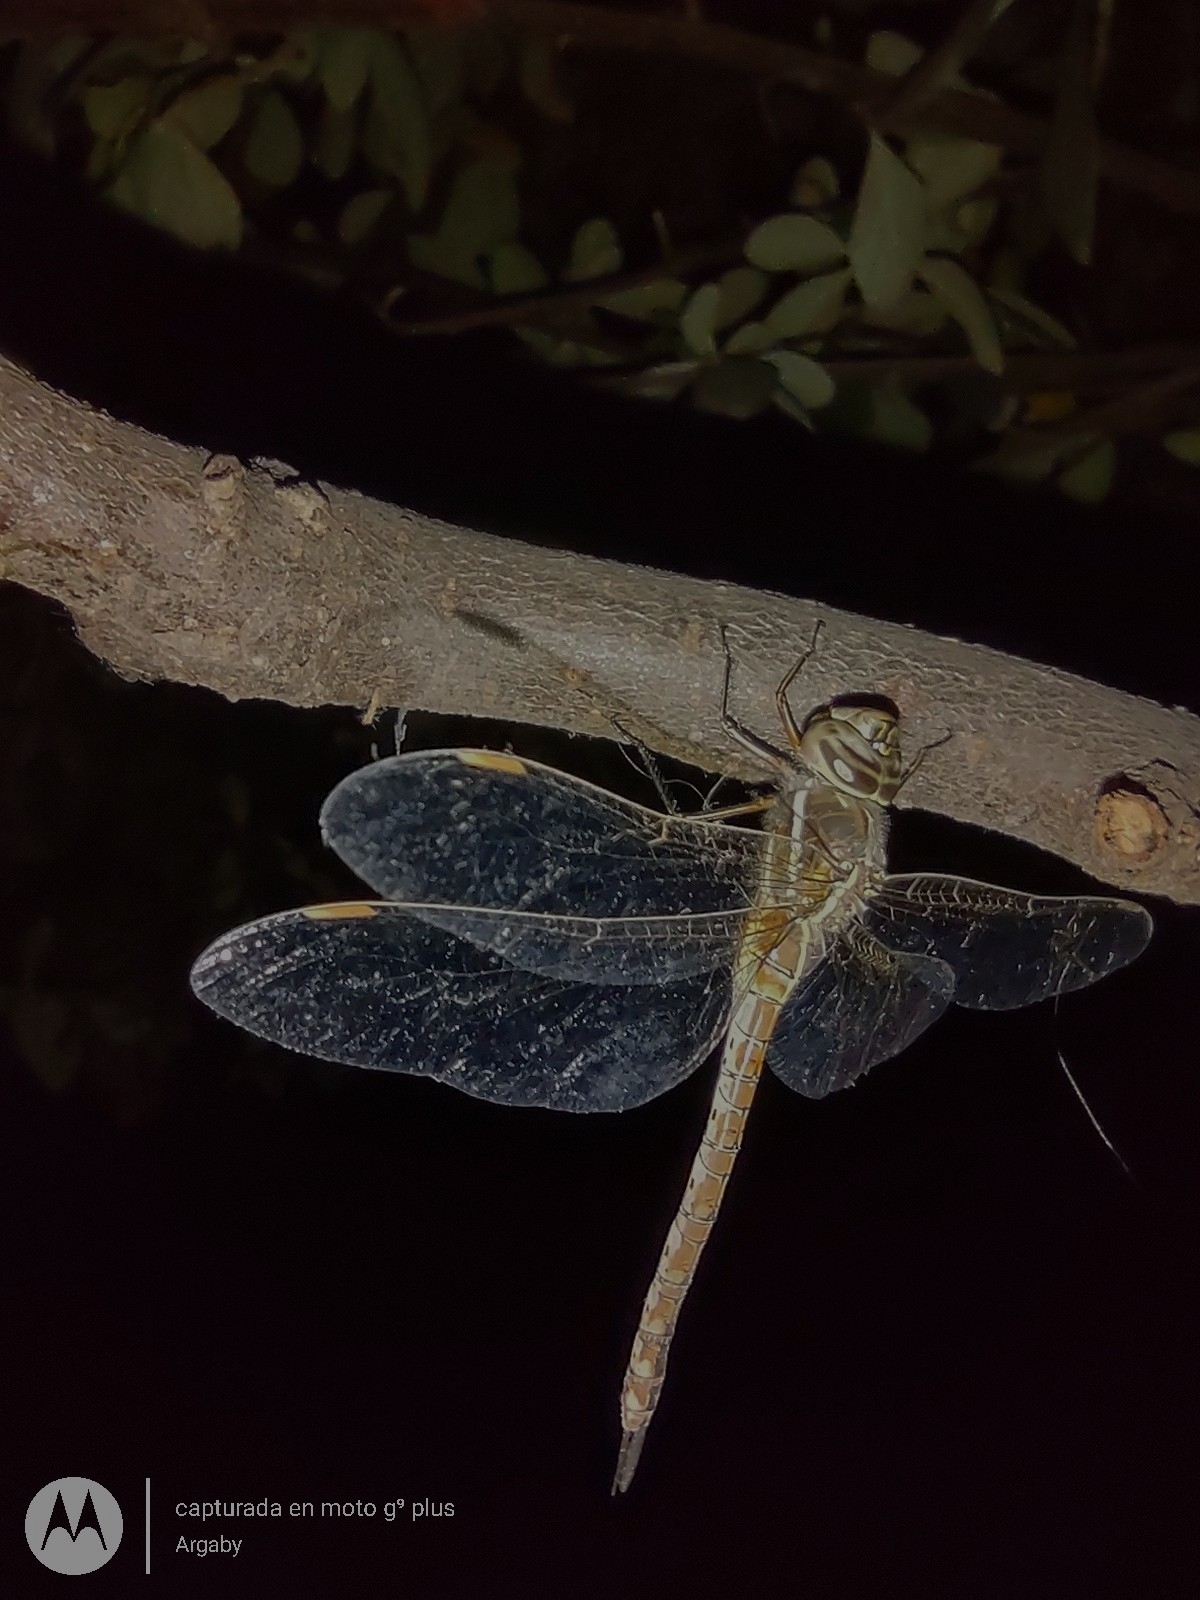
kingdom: Animalia
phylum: Arthropoda
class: Insecta
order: Odonata
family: Aeshnidae
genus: Rhionaeschna
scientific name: Rhionaeschna bonariensis
